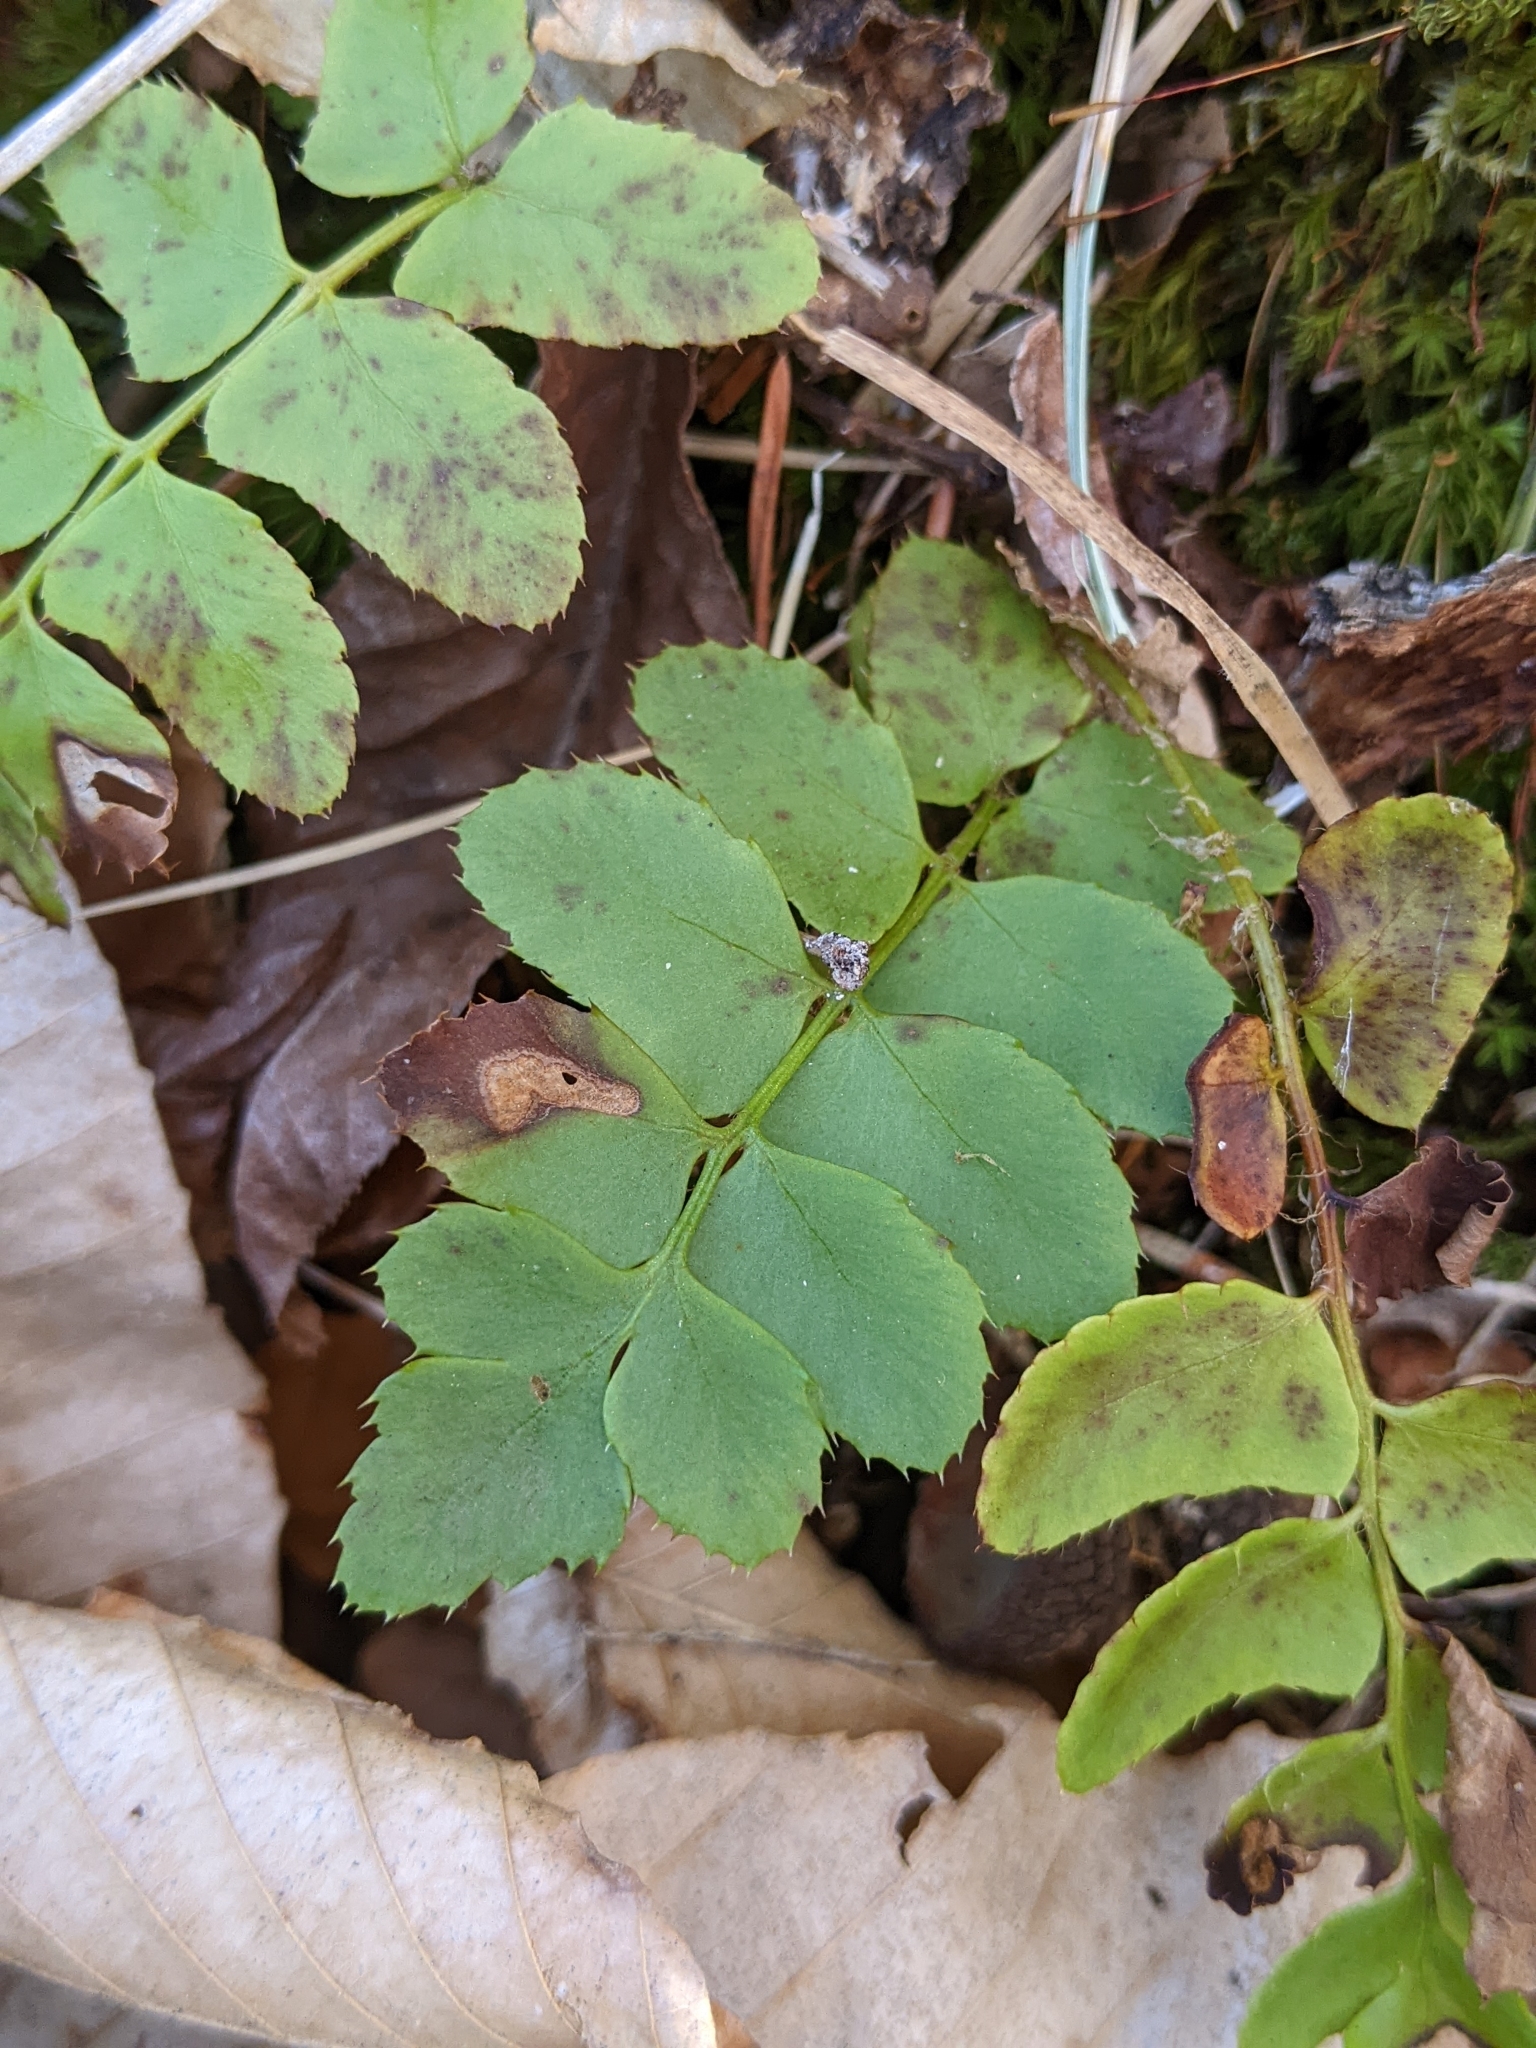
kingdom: Plantae
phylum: Tracheophyta
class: Polypodiopsida
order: Polypodiales
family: Dryopteridaceae
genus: Polystichum
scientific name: Polystichum acrostichoides
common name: Christmas fern
